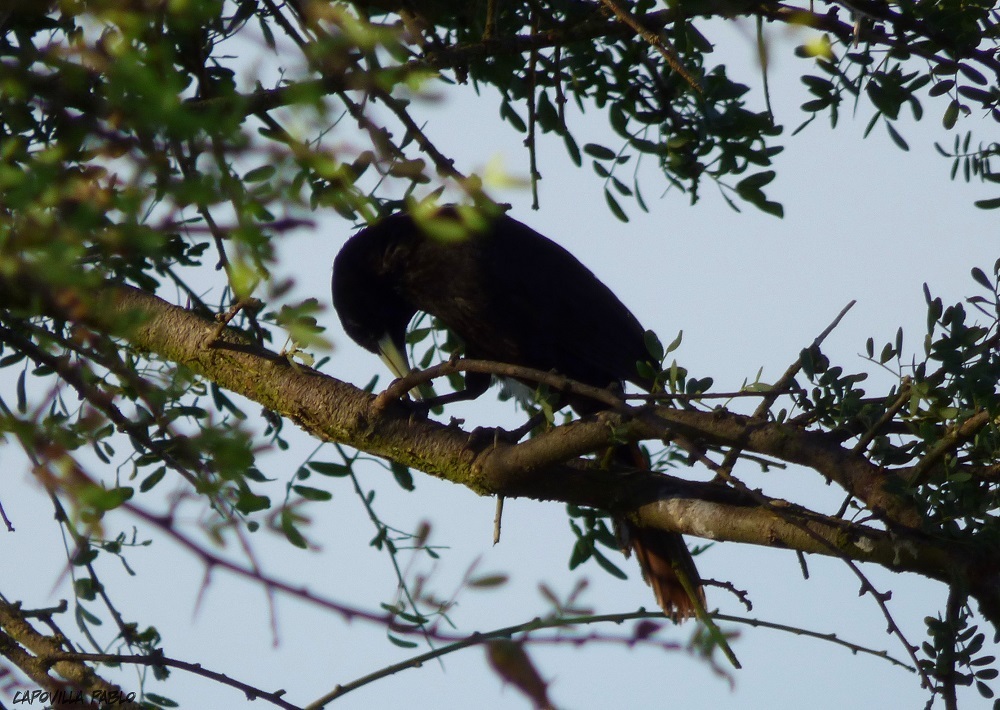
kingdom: Animalia
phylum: Chordata
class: Aves
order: Passeriformes
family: Icteridae
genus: Cacicus
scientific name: Cacicus solitarius
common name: Solitary cacique
